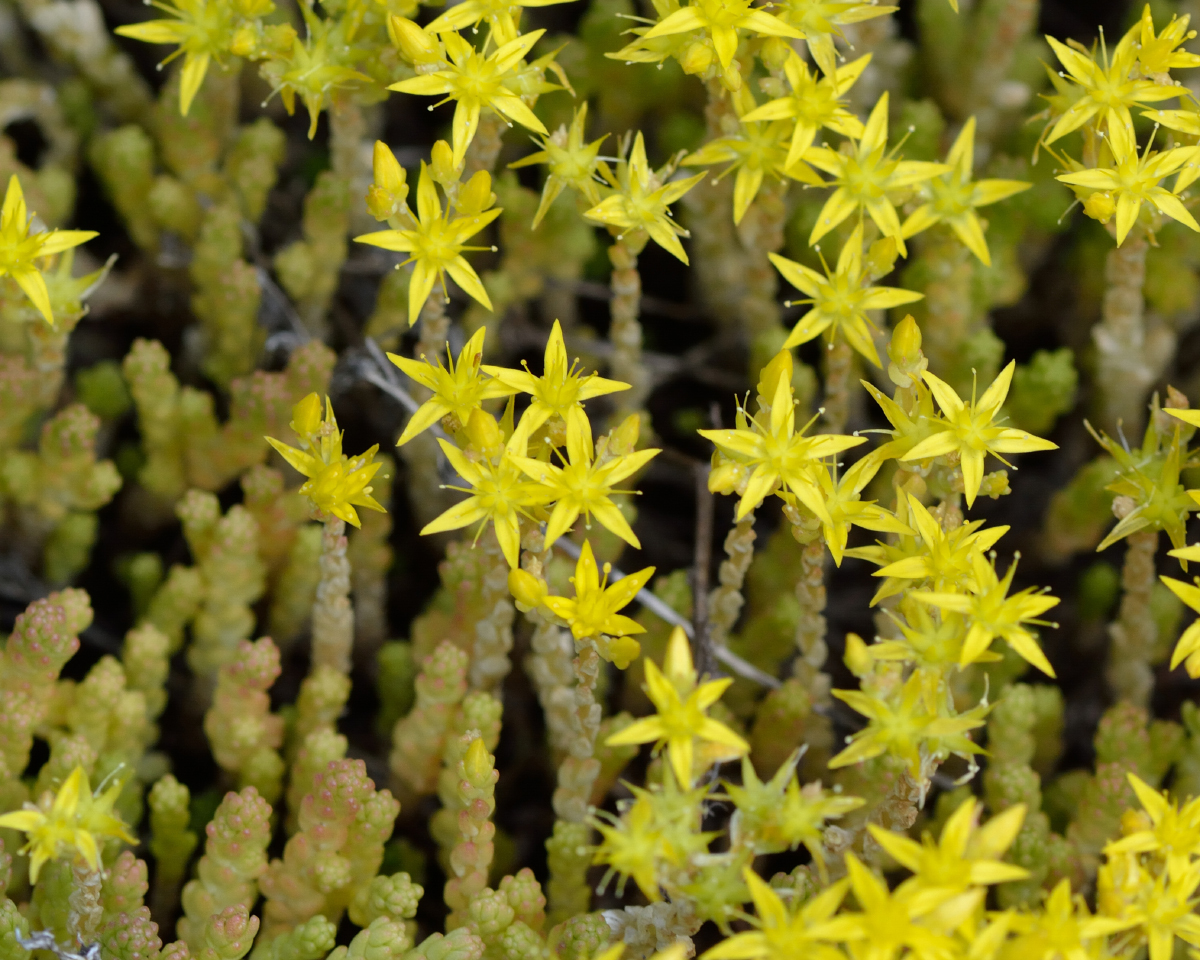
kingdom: Plantae
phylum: Tracheophyta
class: Magnoliopsida
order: Saxifragales
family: Crassulaceae
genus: Sedum
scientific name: Sedum acre
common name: Biting stonecrop
